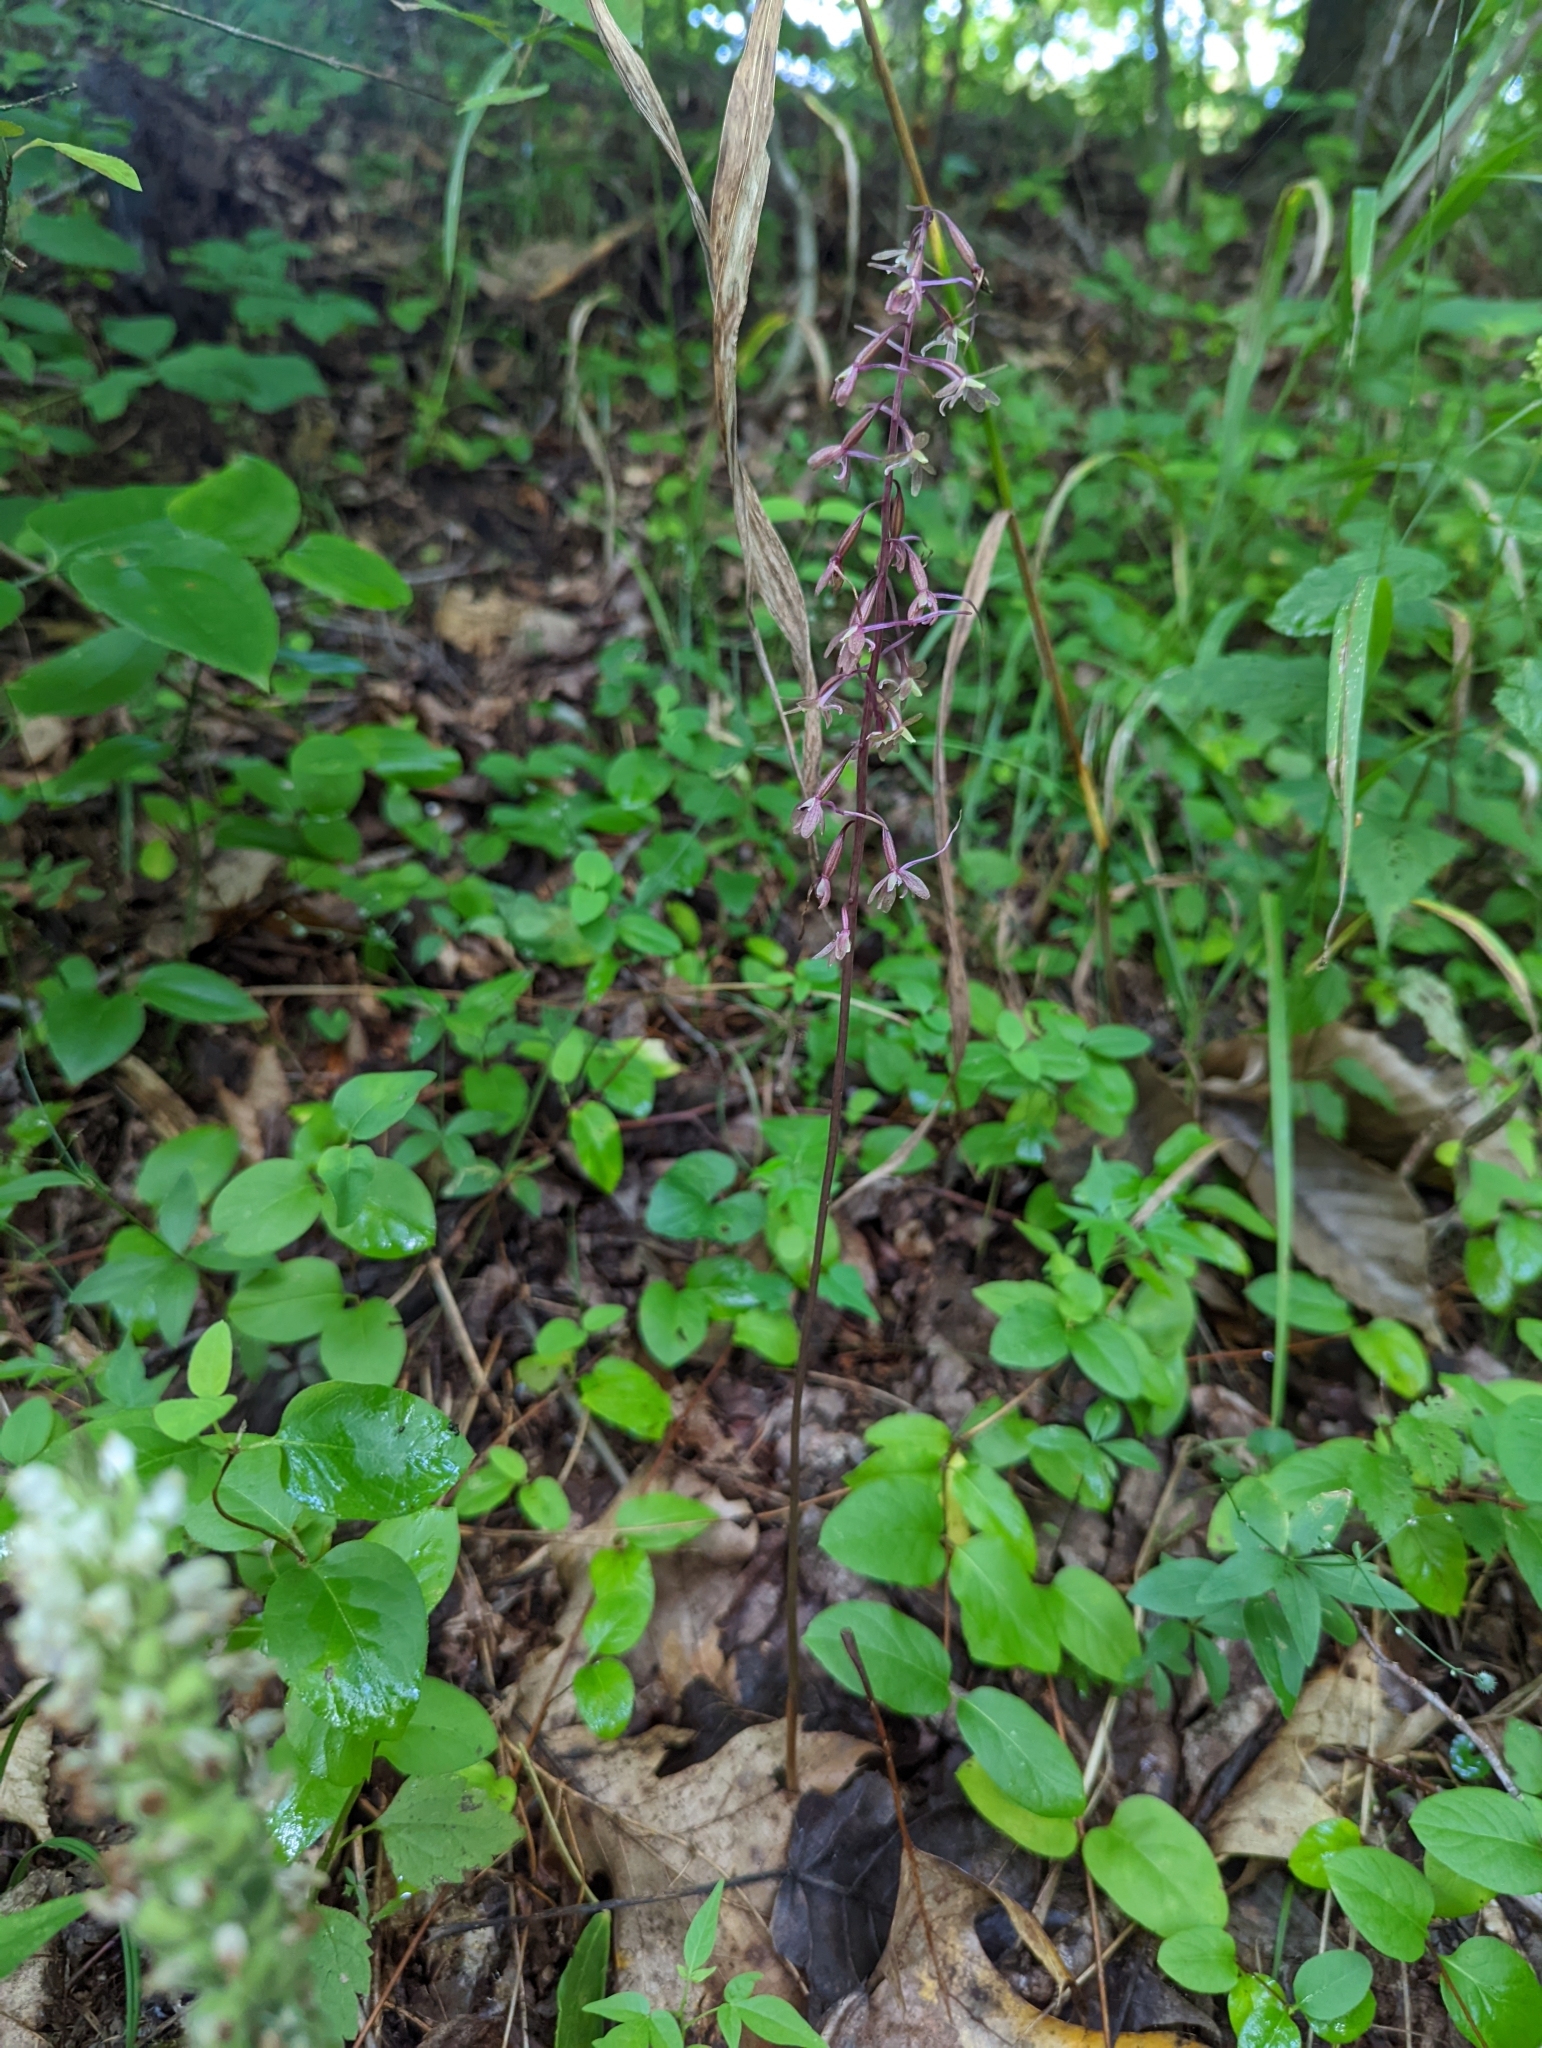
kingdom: Plantae
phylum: Tracheophyta
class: Liliopsida
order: Asparagales
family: Orchidaceae
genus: Tipularia
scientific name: Tipularia discolor
